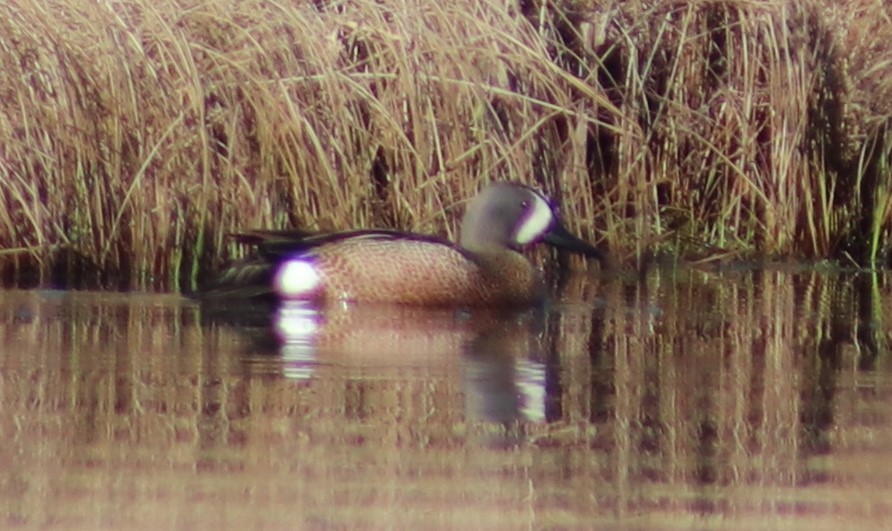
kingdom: Animalia
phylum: Chordata
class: Aves
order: Anseriformes
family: Anatidae
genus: Spatula
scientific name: Spatula discors
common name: Blue-winged teal
